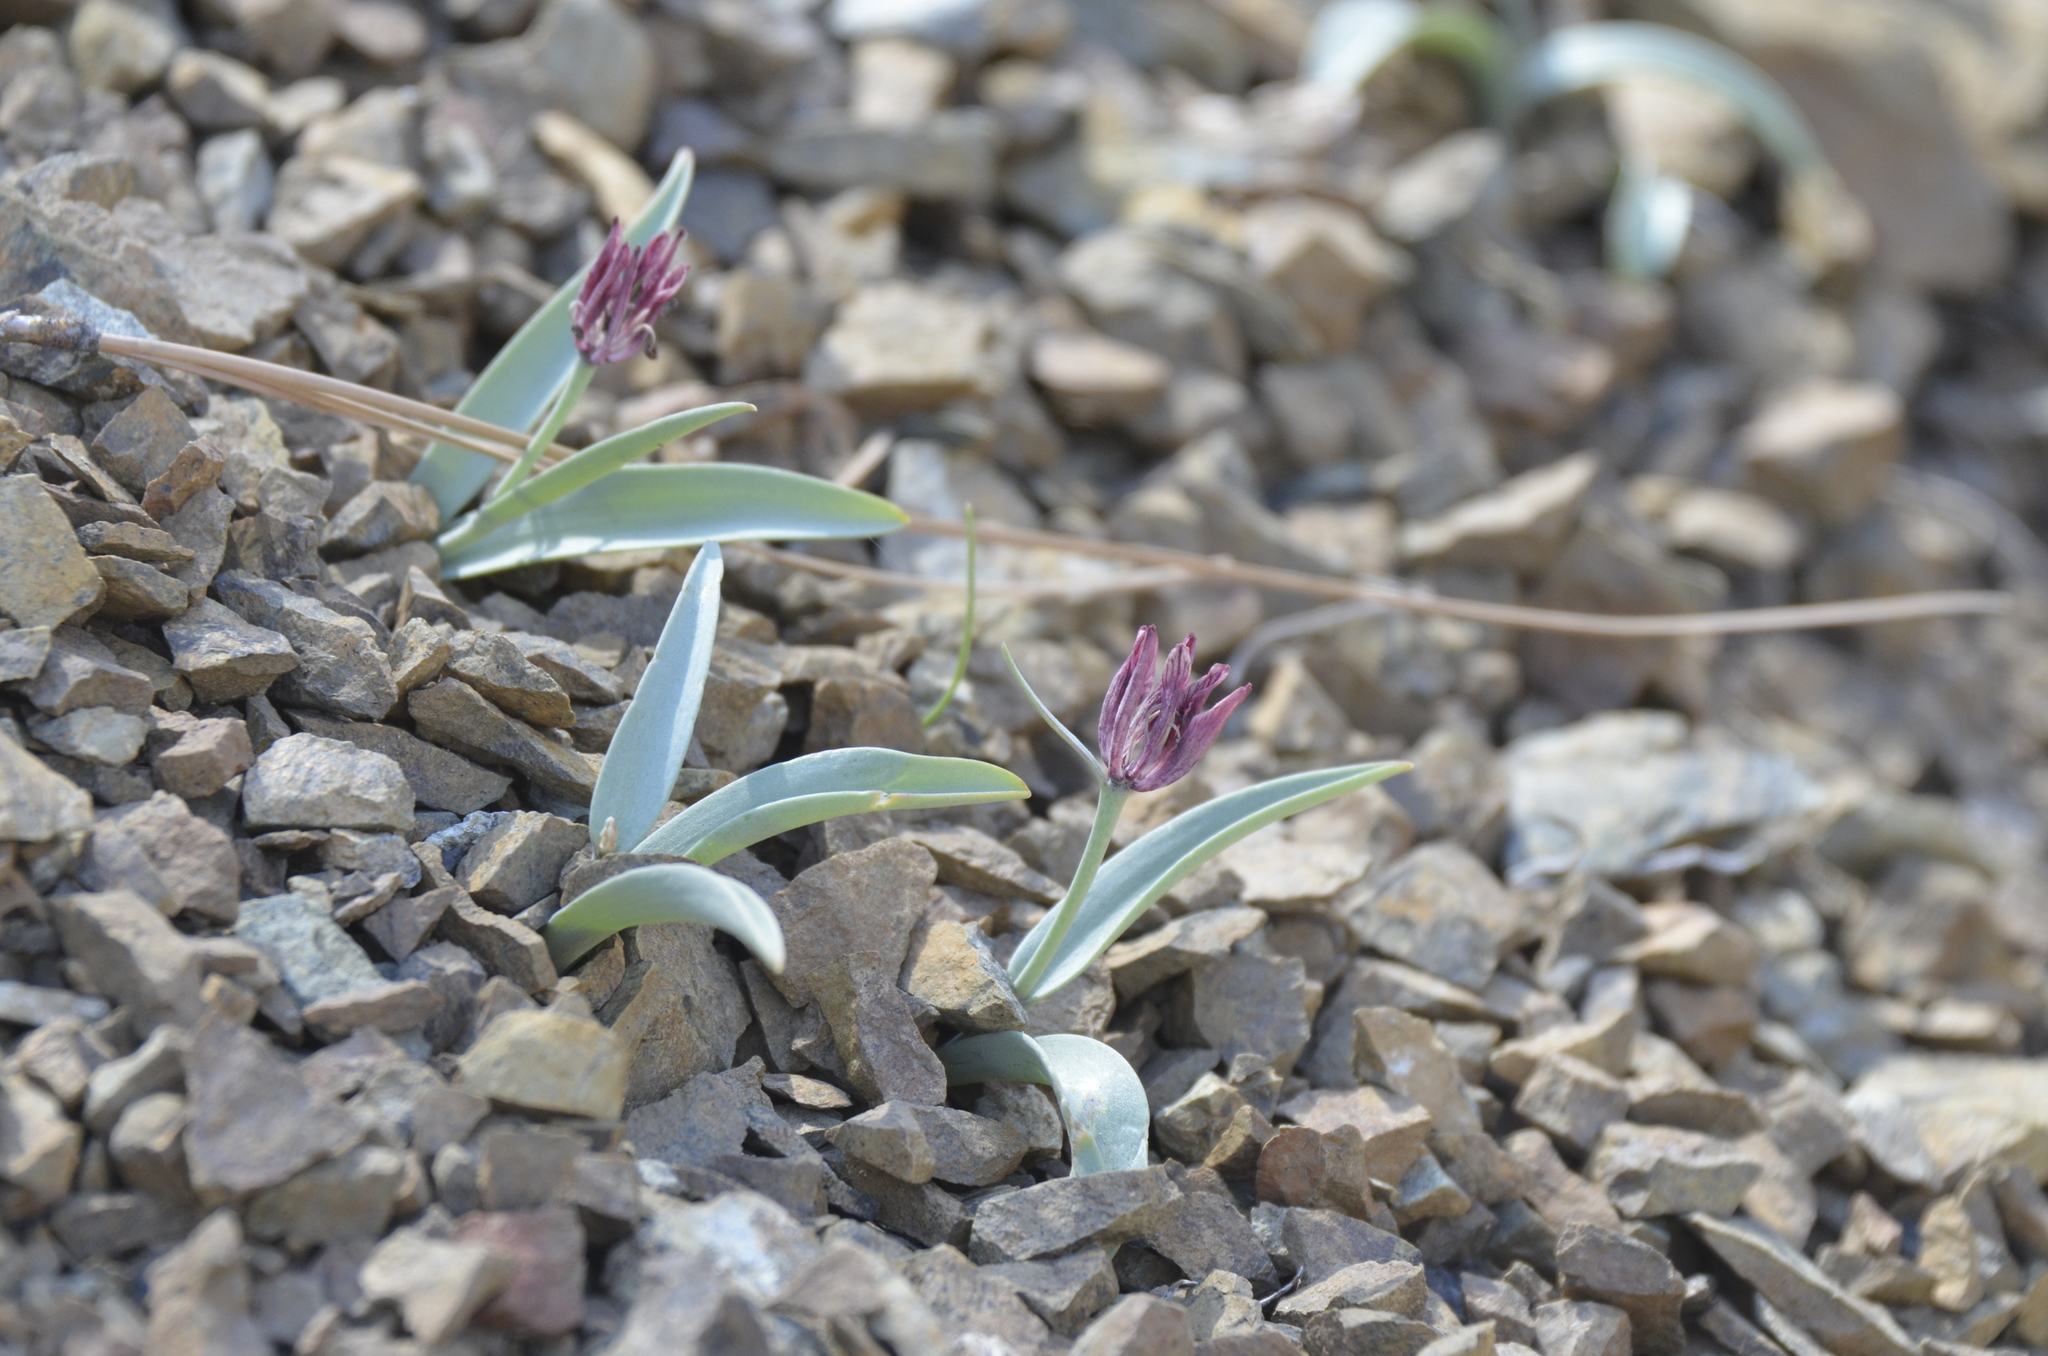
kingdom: Plantae
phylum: Tracheophyta
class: Liliopsida
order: Liliales
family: Liliaceae
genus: Fritillaria
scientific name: Fritillaria falcata
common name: Talus fritillary
